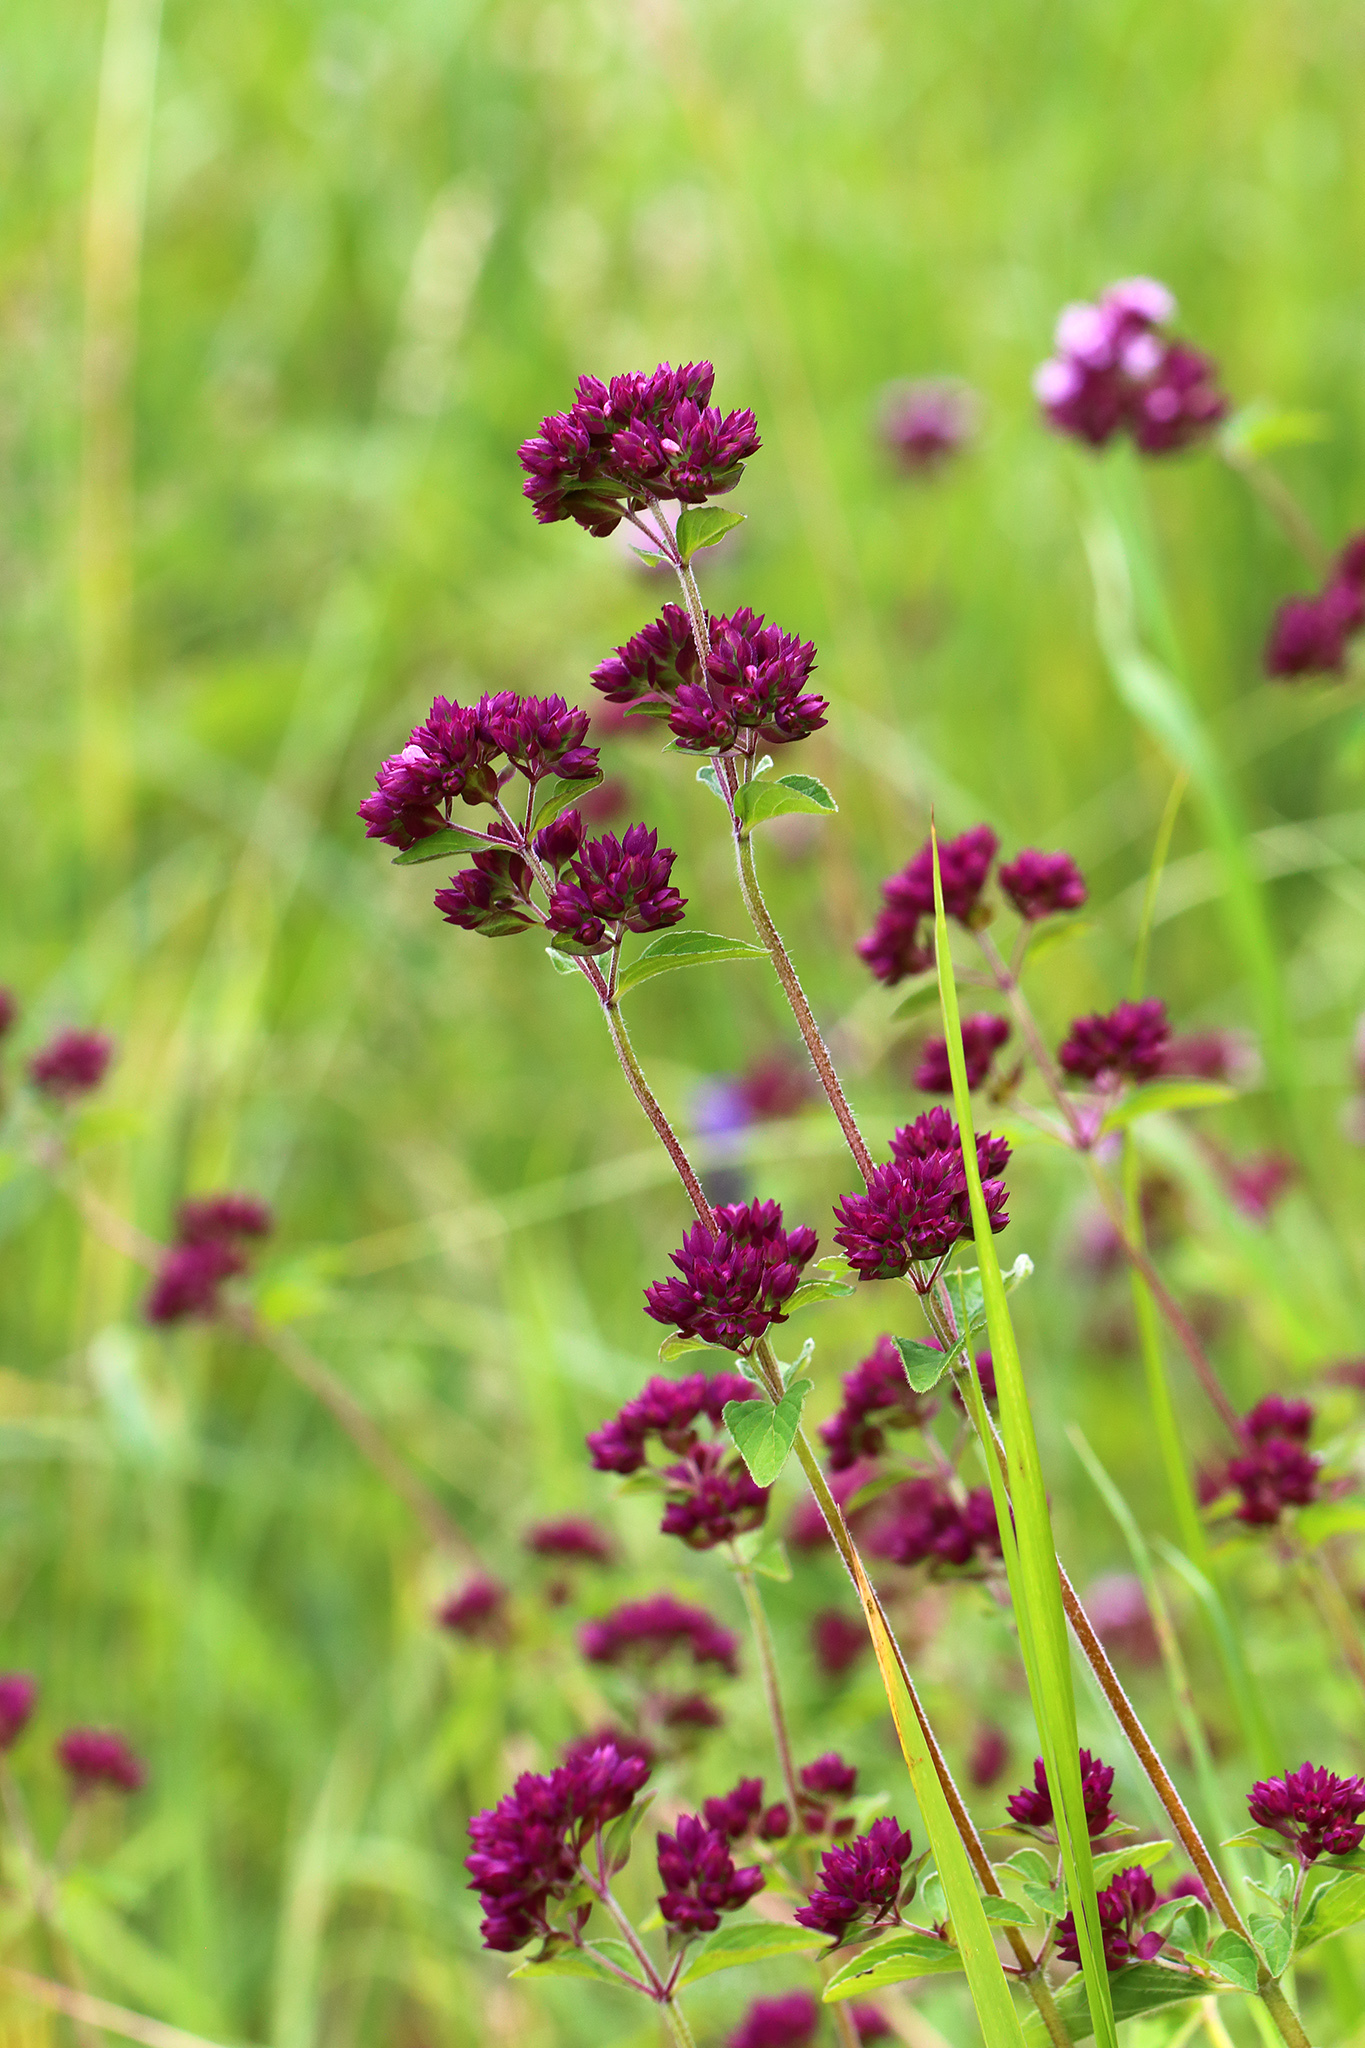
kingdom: Plantae
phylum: Tracheophyta
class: Magnoliopsida
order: Lamiales
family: Lamiaceae
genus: Origanum
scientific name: Origanum vulgare
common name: Wild marjoram
